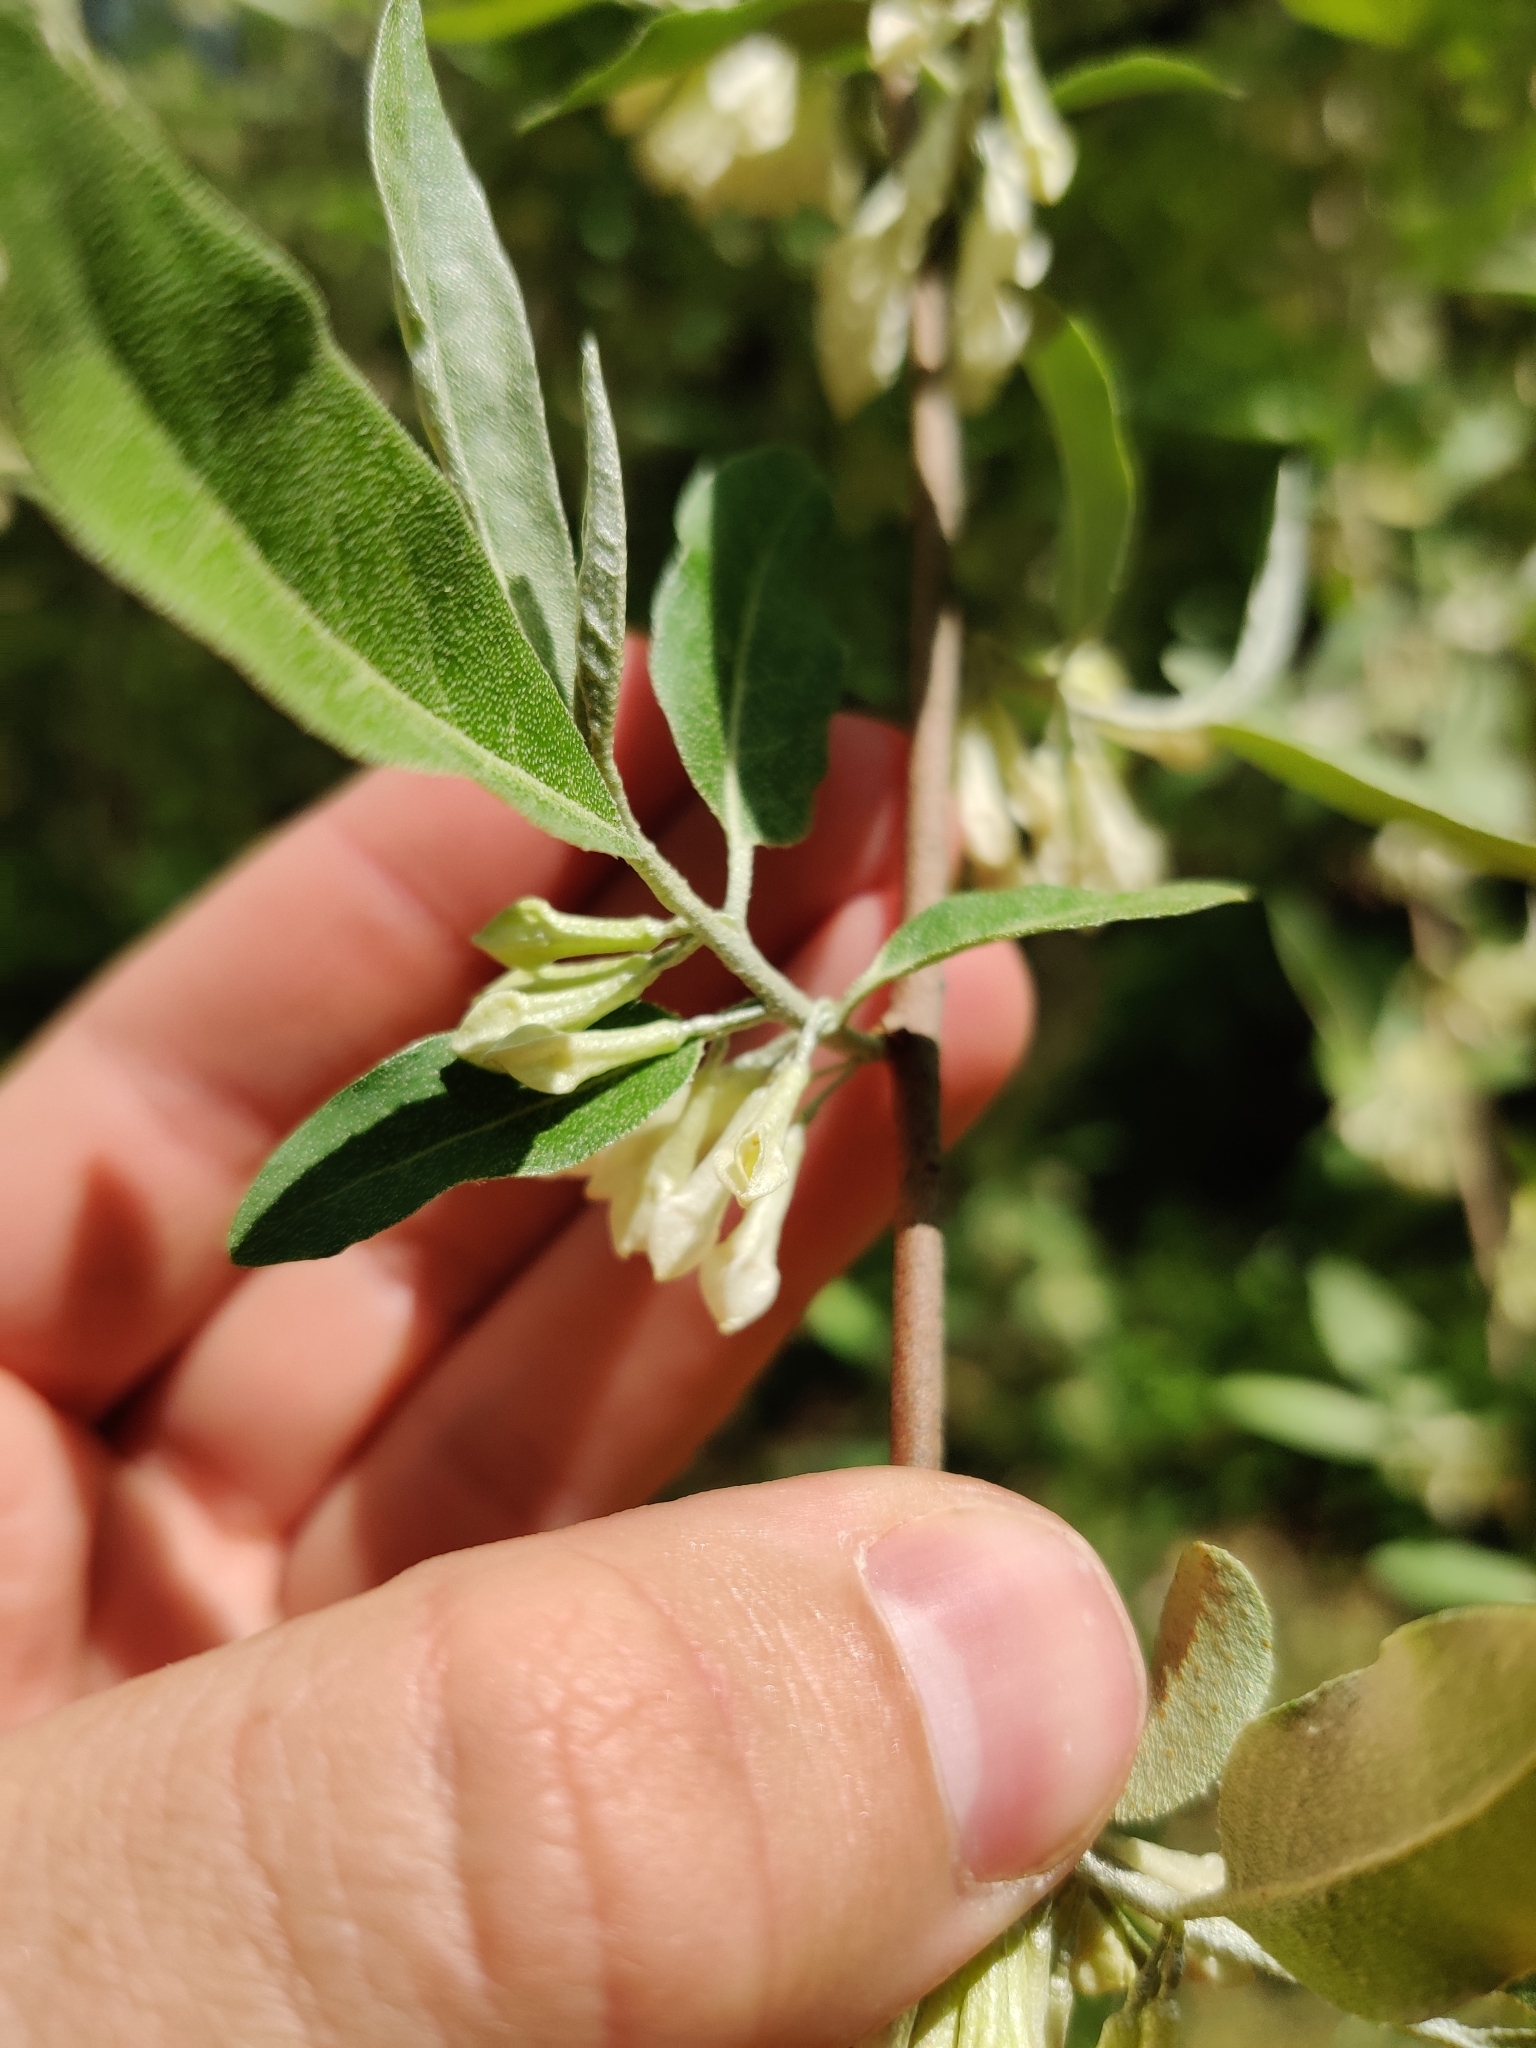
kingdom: Plantae
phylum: Tracheophyta
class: Magnoliopsida
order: Rosales
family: Elaeagnaceae
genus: Elaeagnus
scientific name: Elaeagnus umbellata
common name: Autumn olive
